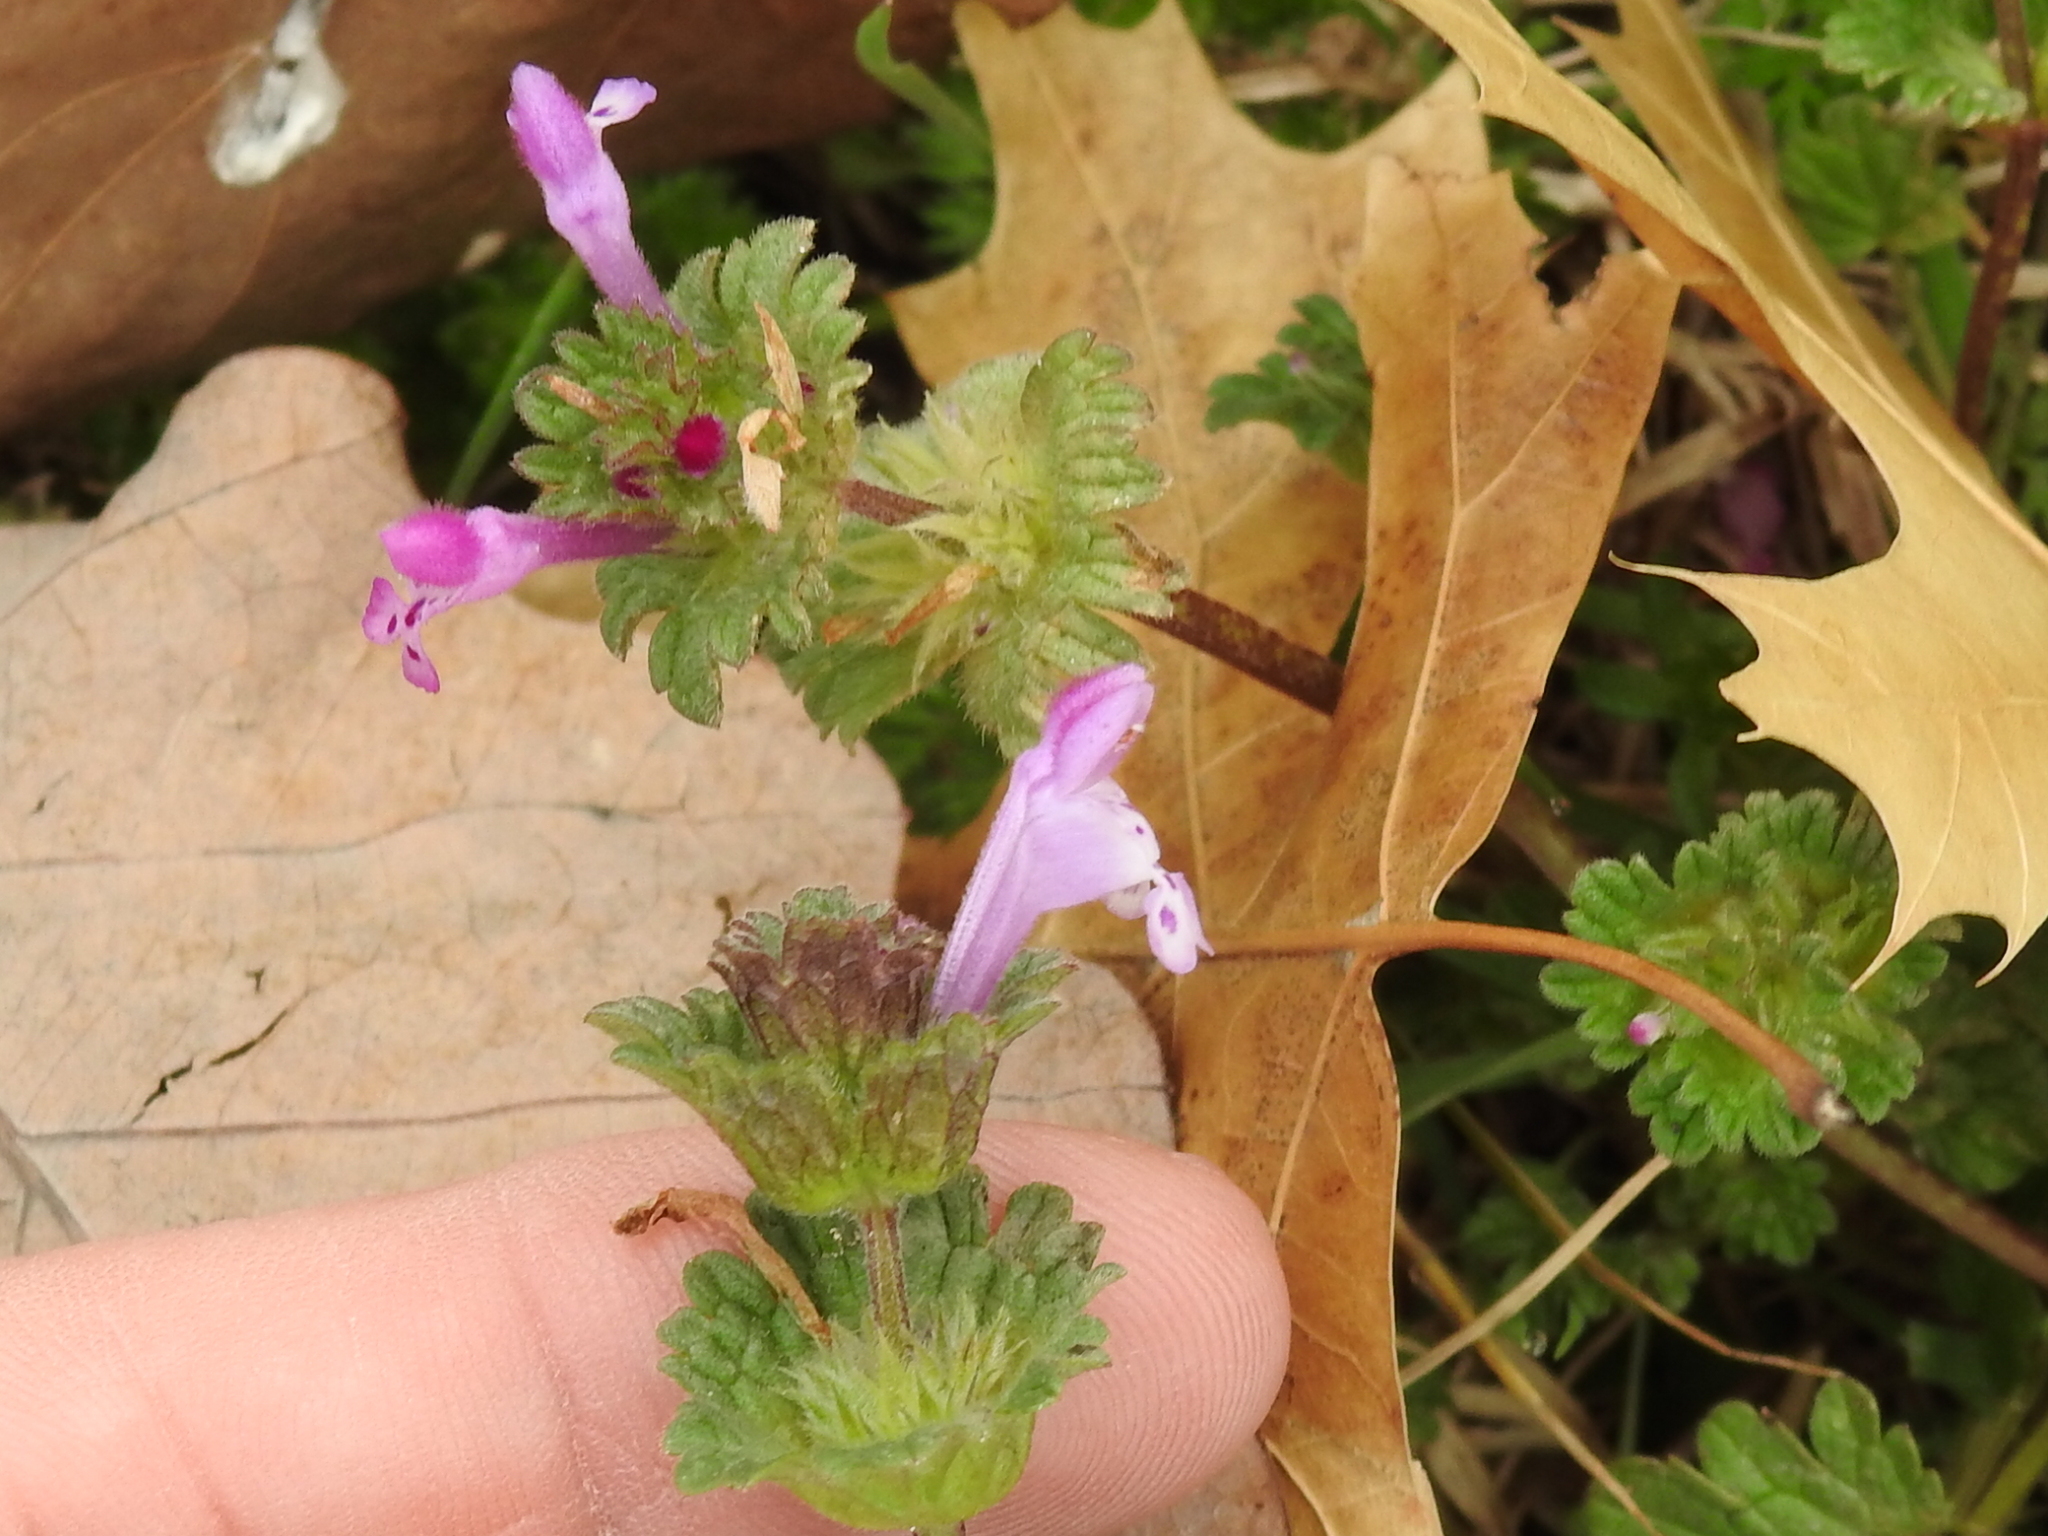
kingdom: Plantae
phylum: Tracheophyta
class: Magnoliopsida
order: Lamiales
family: Lamiaceae
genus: Lamium
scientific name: Lamium amplexicaule
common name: Henbit dead-nettle
